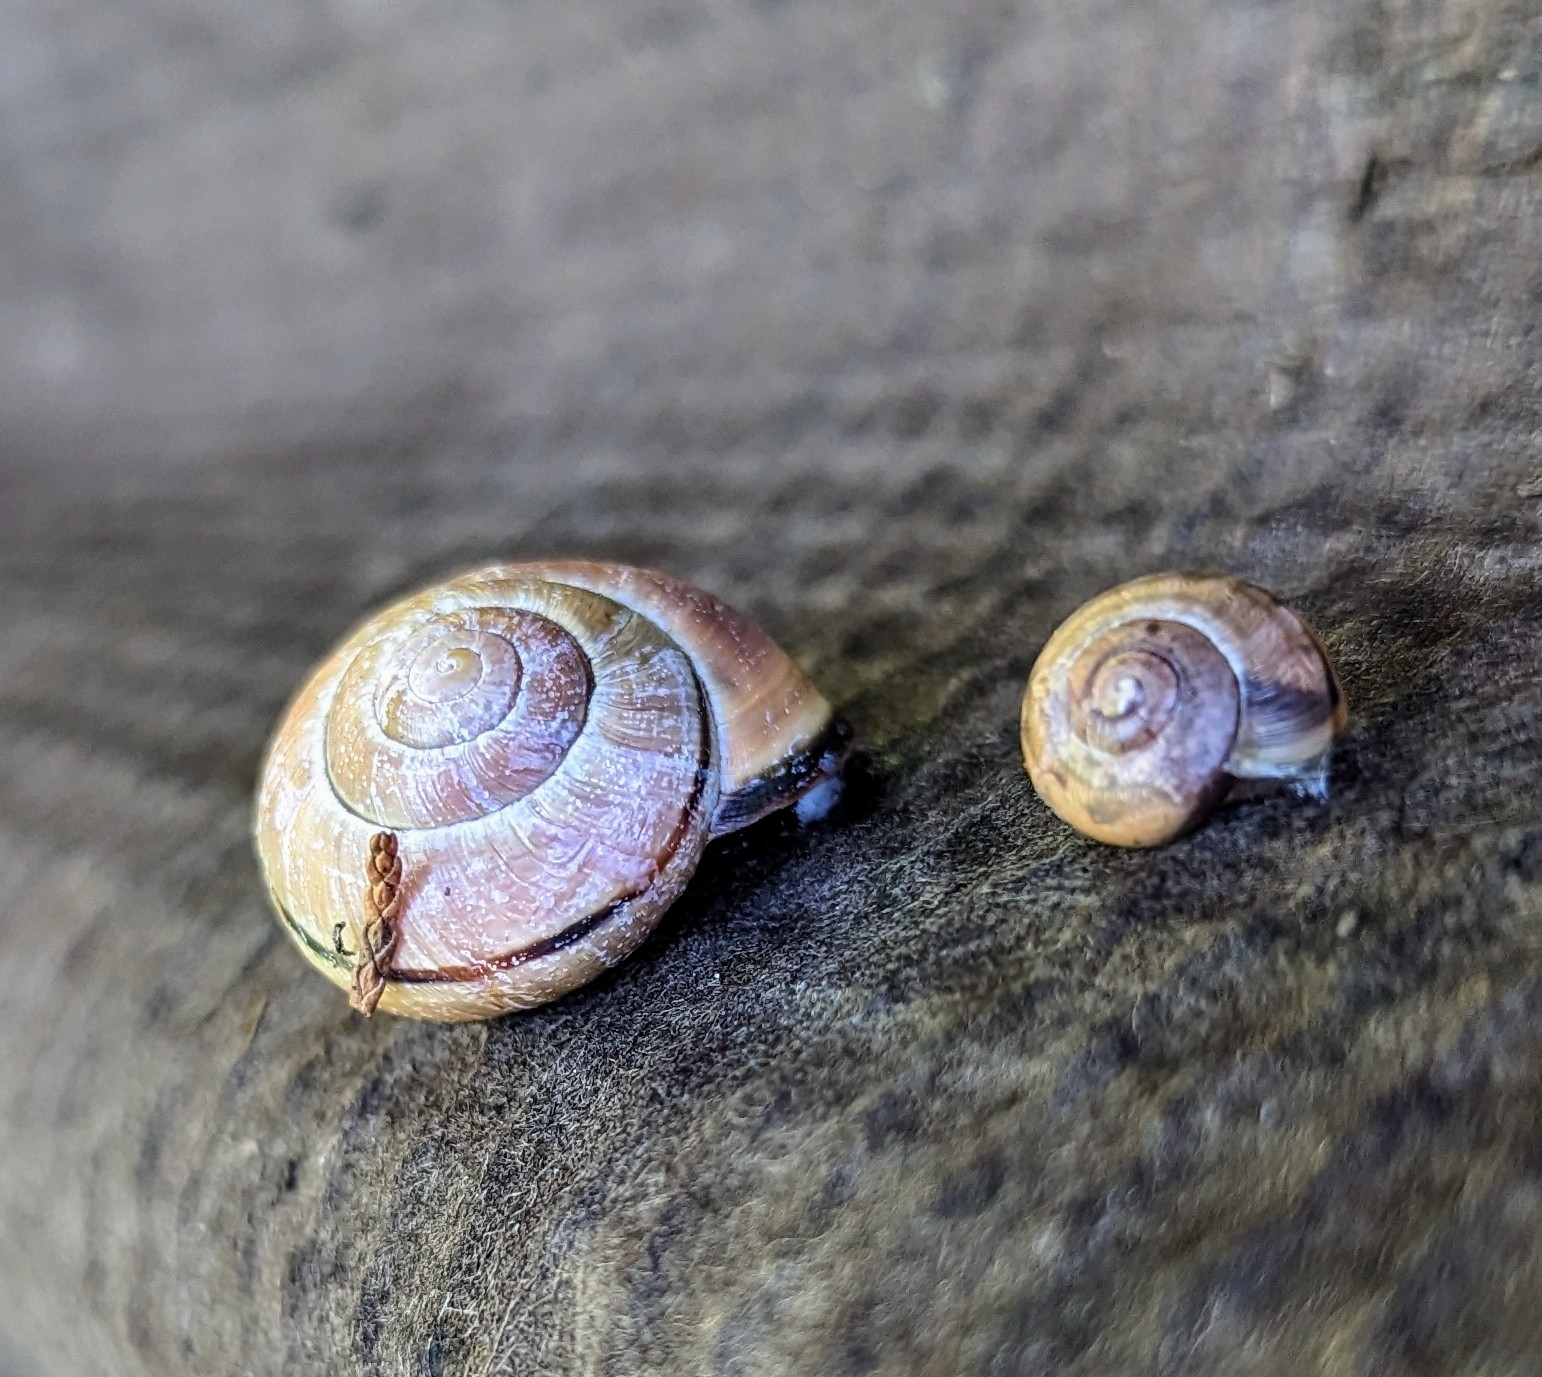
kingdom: Animalia
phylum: Mollusca
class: Gastropoda
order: Stylommatophora
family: Helicidae
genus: Cepaea
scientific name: Cepaea nemoralis
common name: Grovesnail
